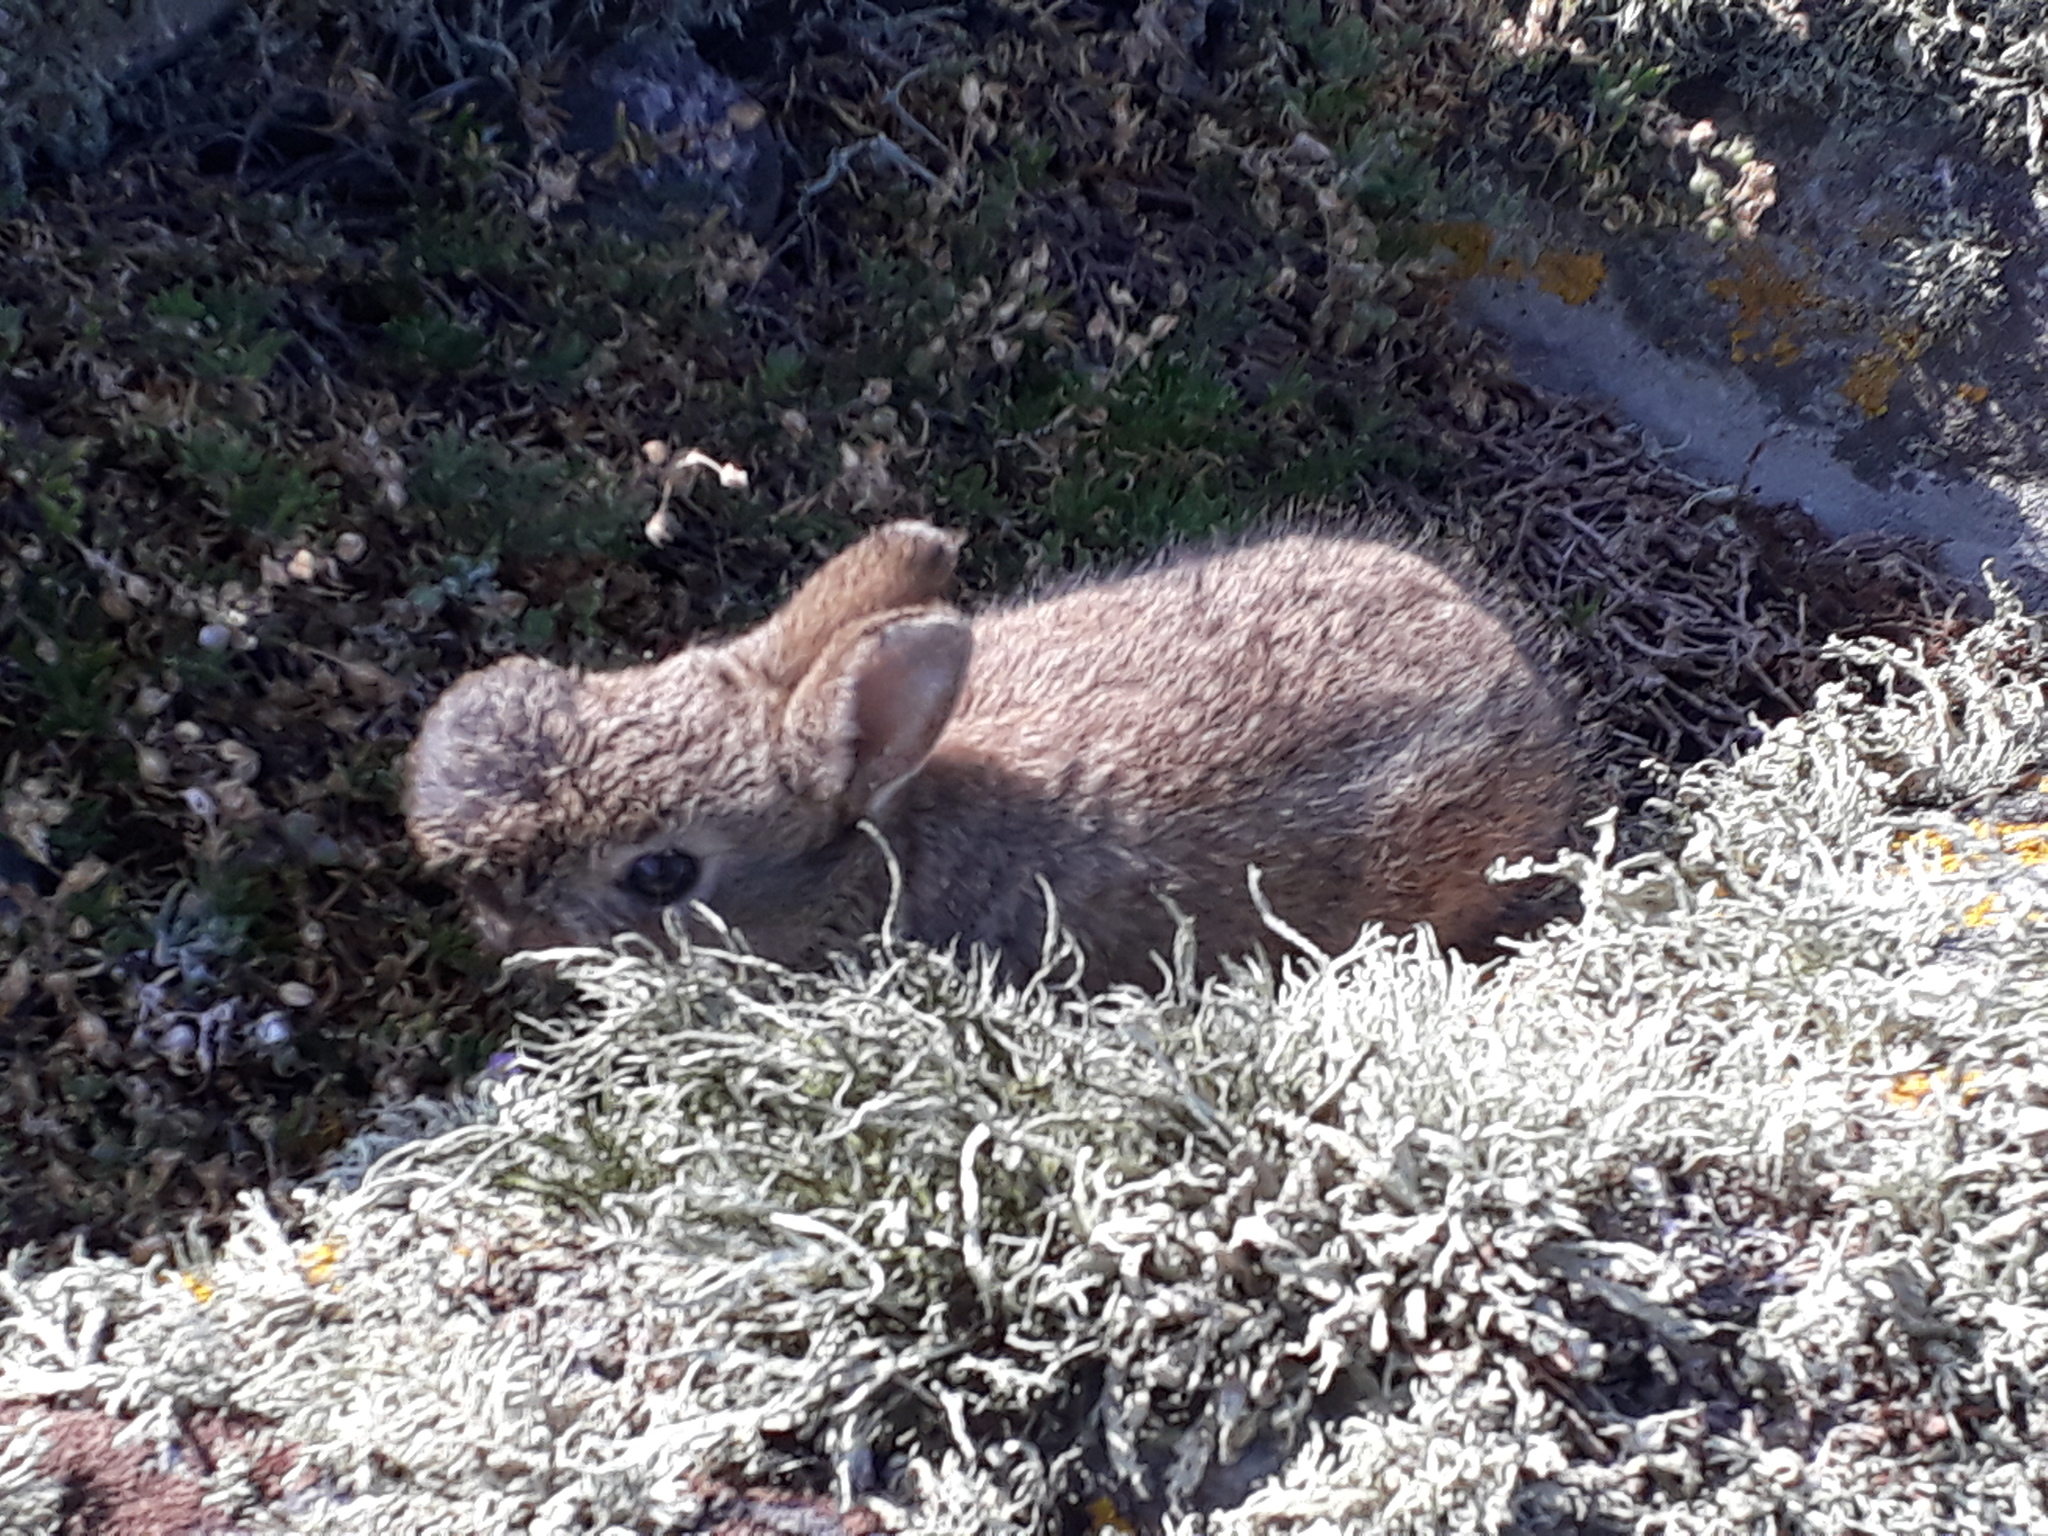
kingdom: Animalia
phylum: Chordata
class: Mammalia
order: Lagomorpha
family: Leporidae
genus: Oryctolagus
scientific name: Oryctolagus cuniculus
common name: European rabbit
